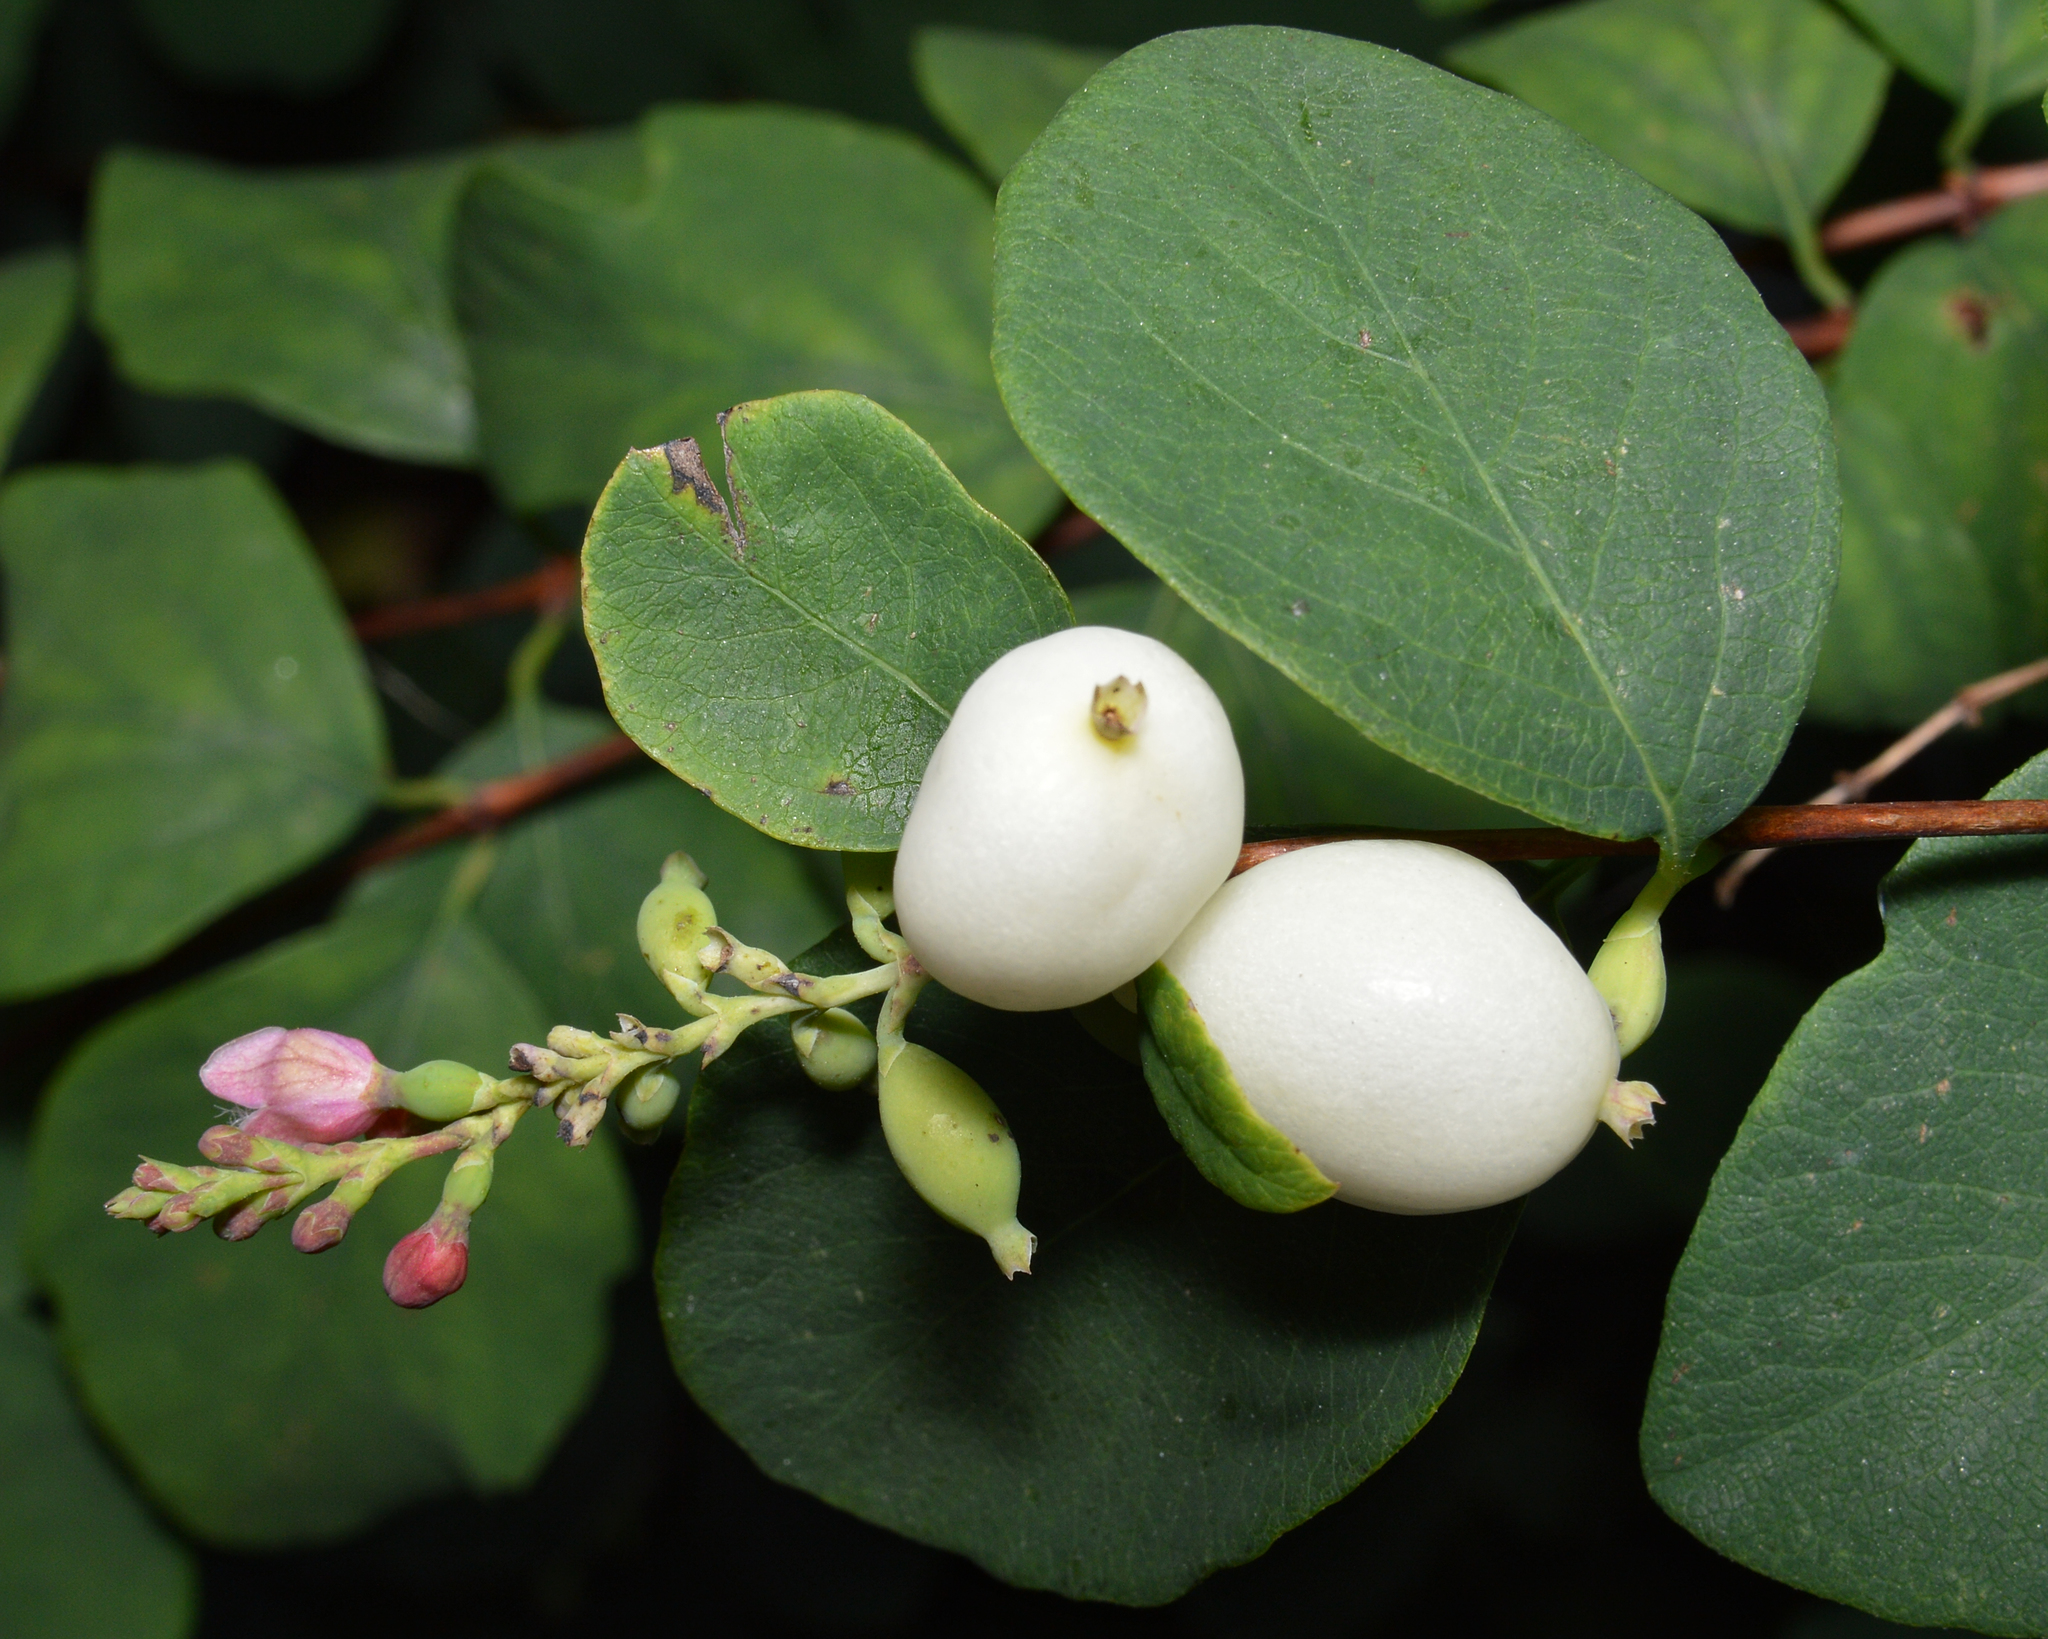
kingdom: Plantae
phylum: Tracheophyta
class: Magnoliopsida
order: Dipsacales
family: Caprifoliaceae
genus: Symphoricarpos
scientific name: Symphoricarpos albus
